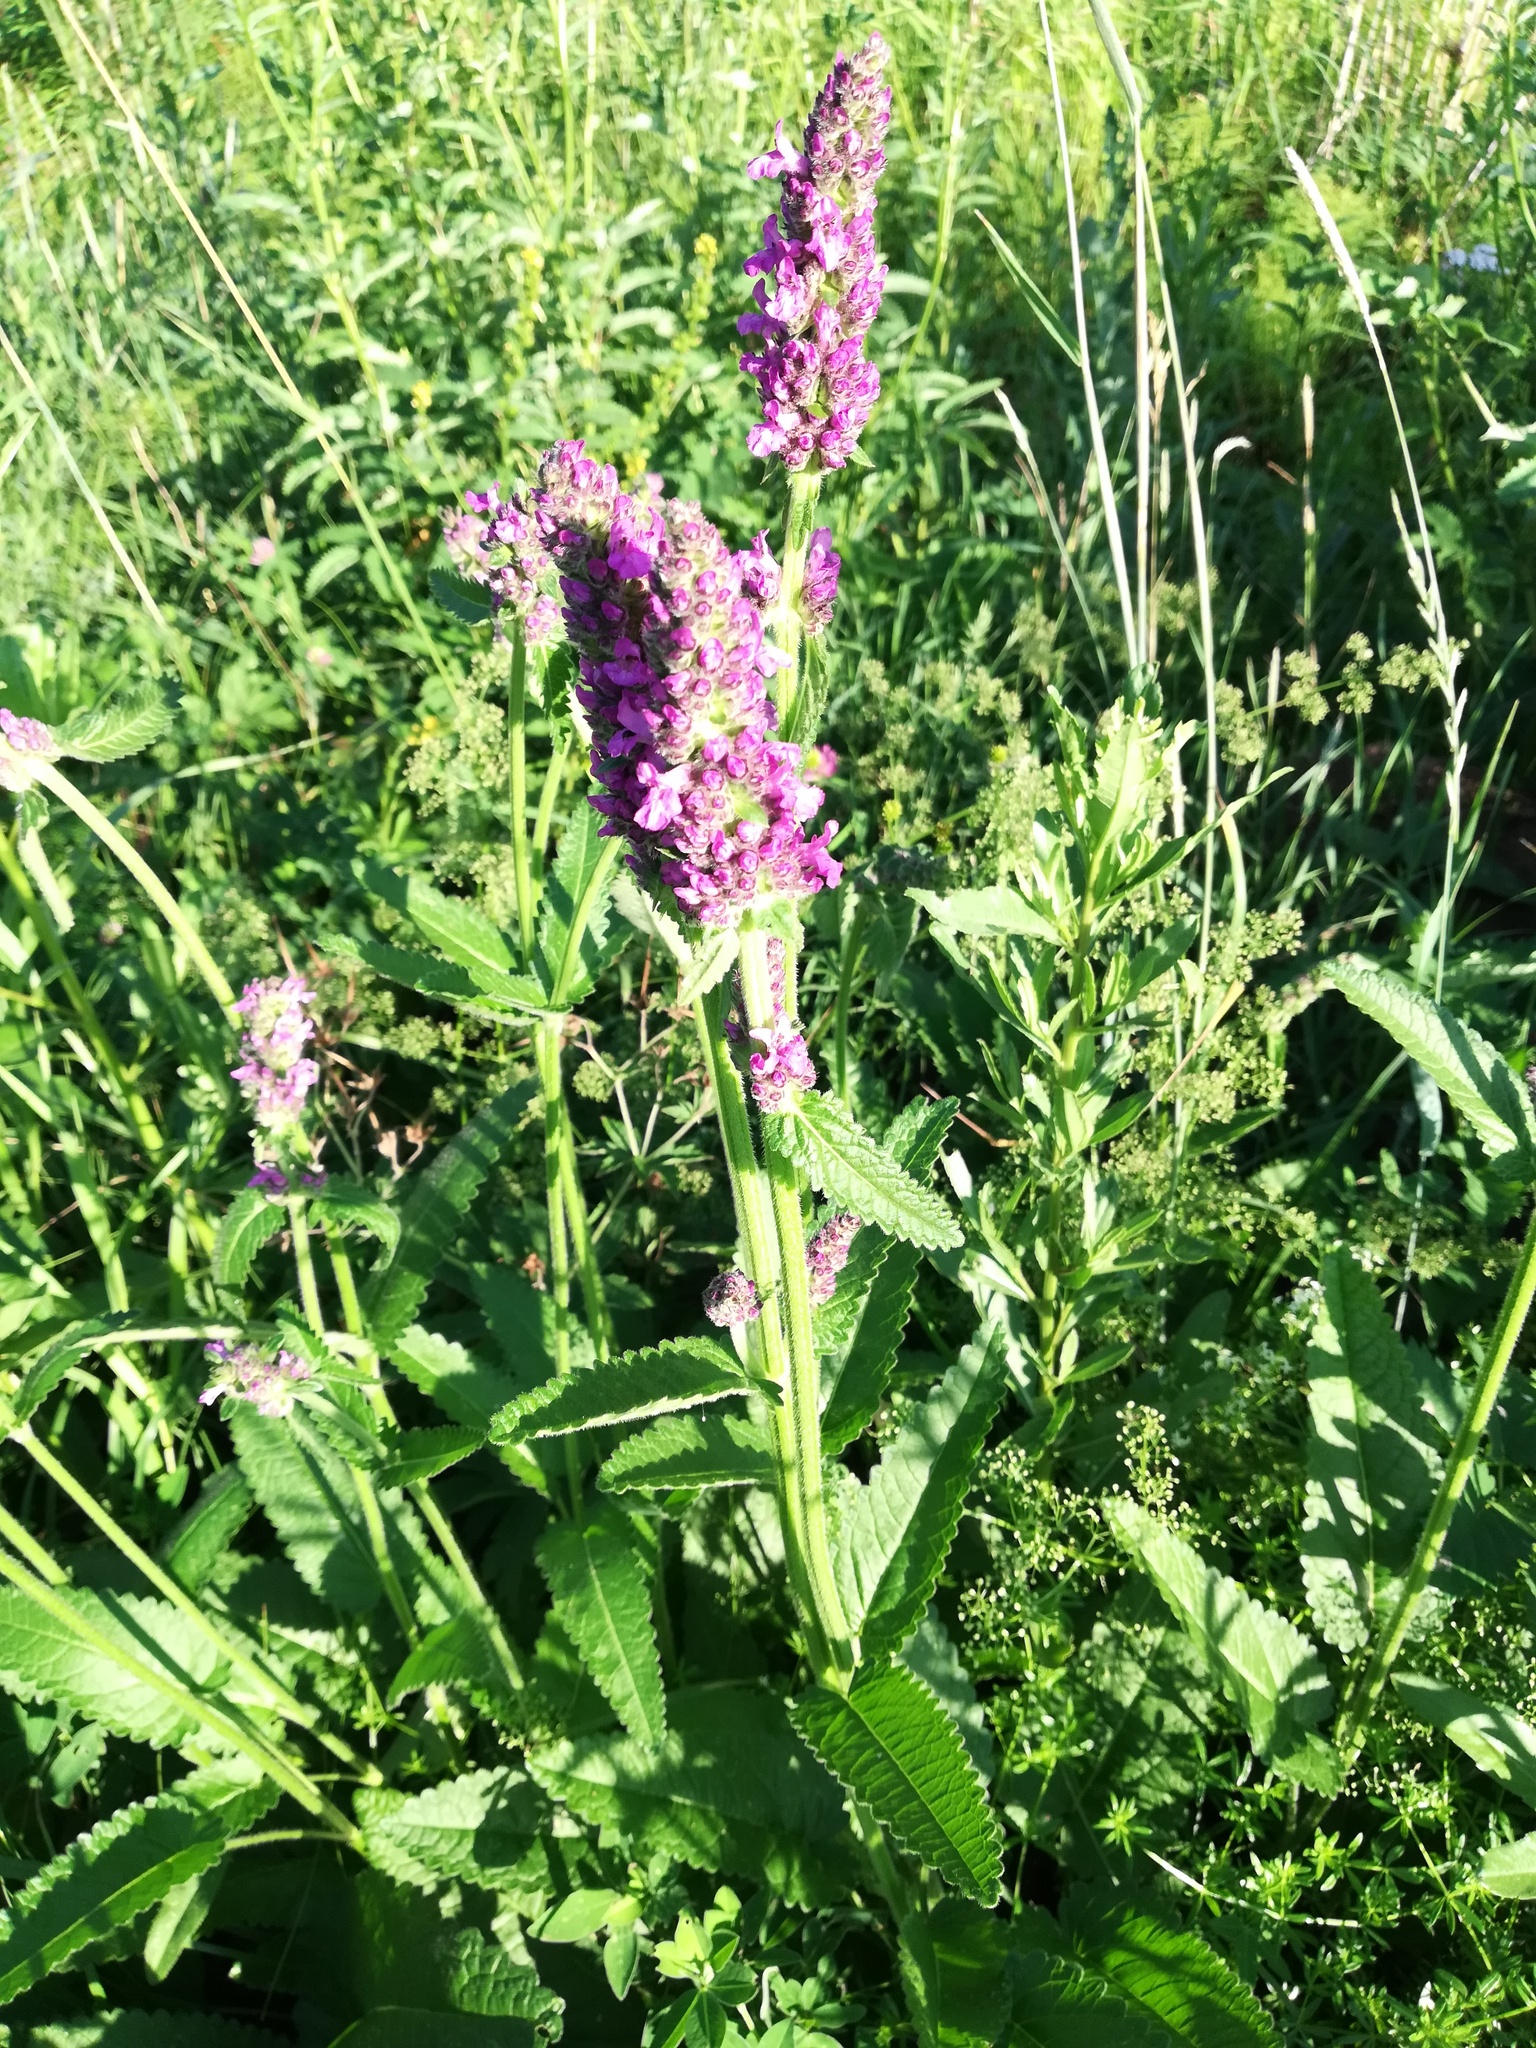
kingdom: Plantae
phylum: Tracheophyta
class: Magnoliopsida
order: Lamiales
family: Lamiaceae
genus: Betonica
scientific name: Betonica officinalis
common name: Bishop's-wort
